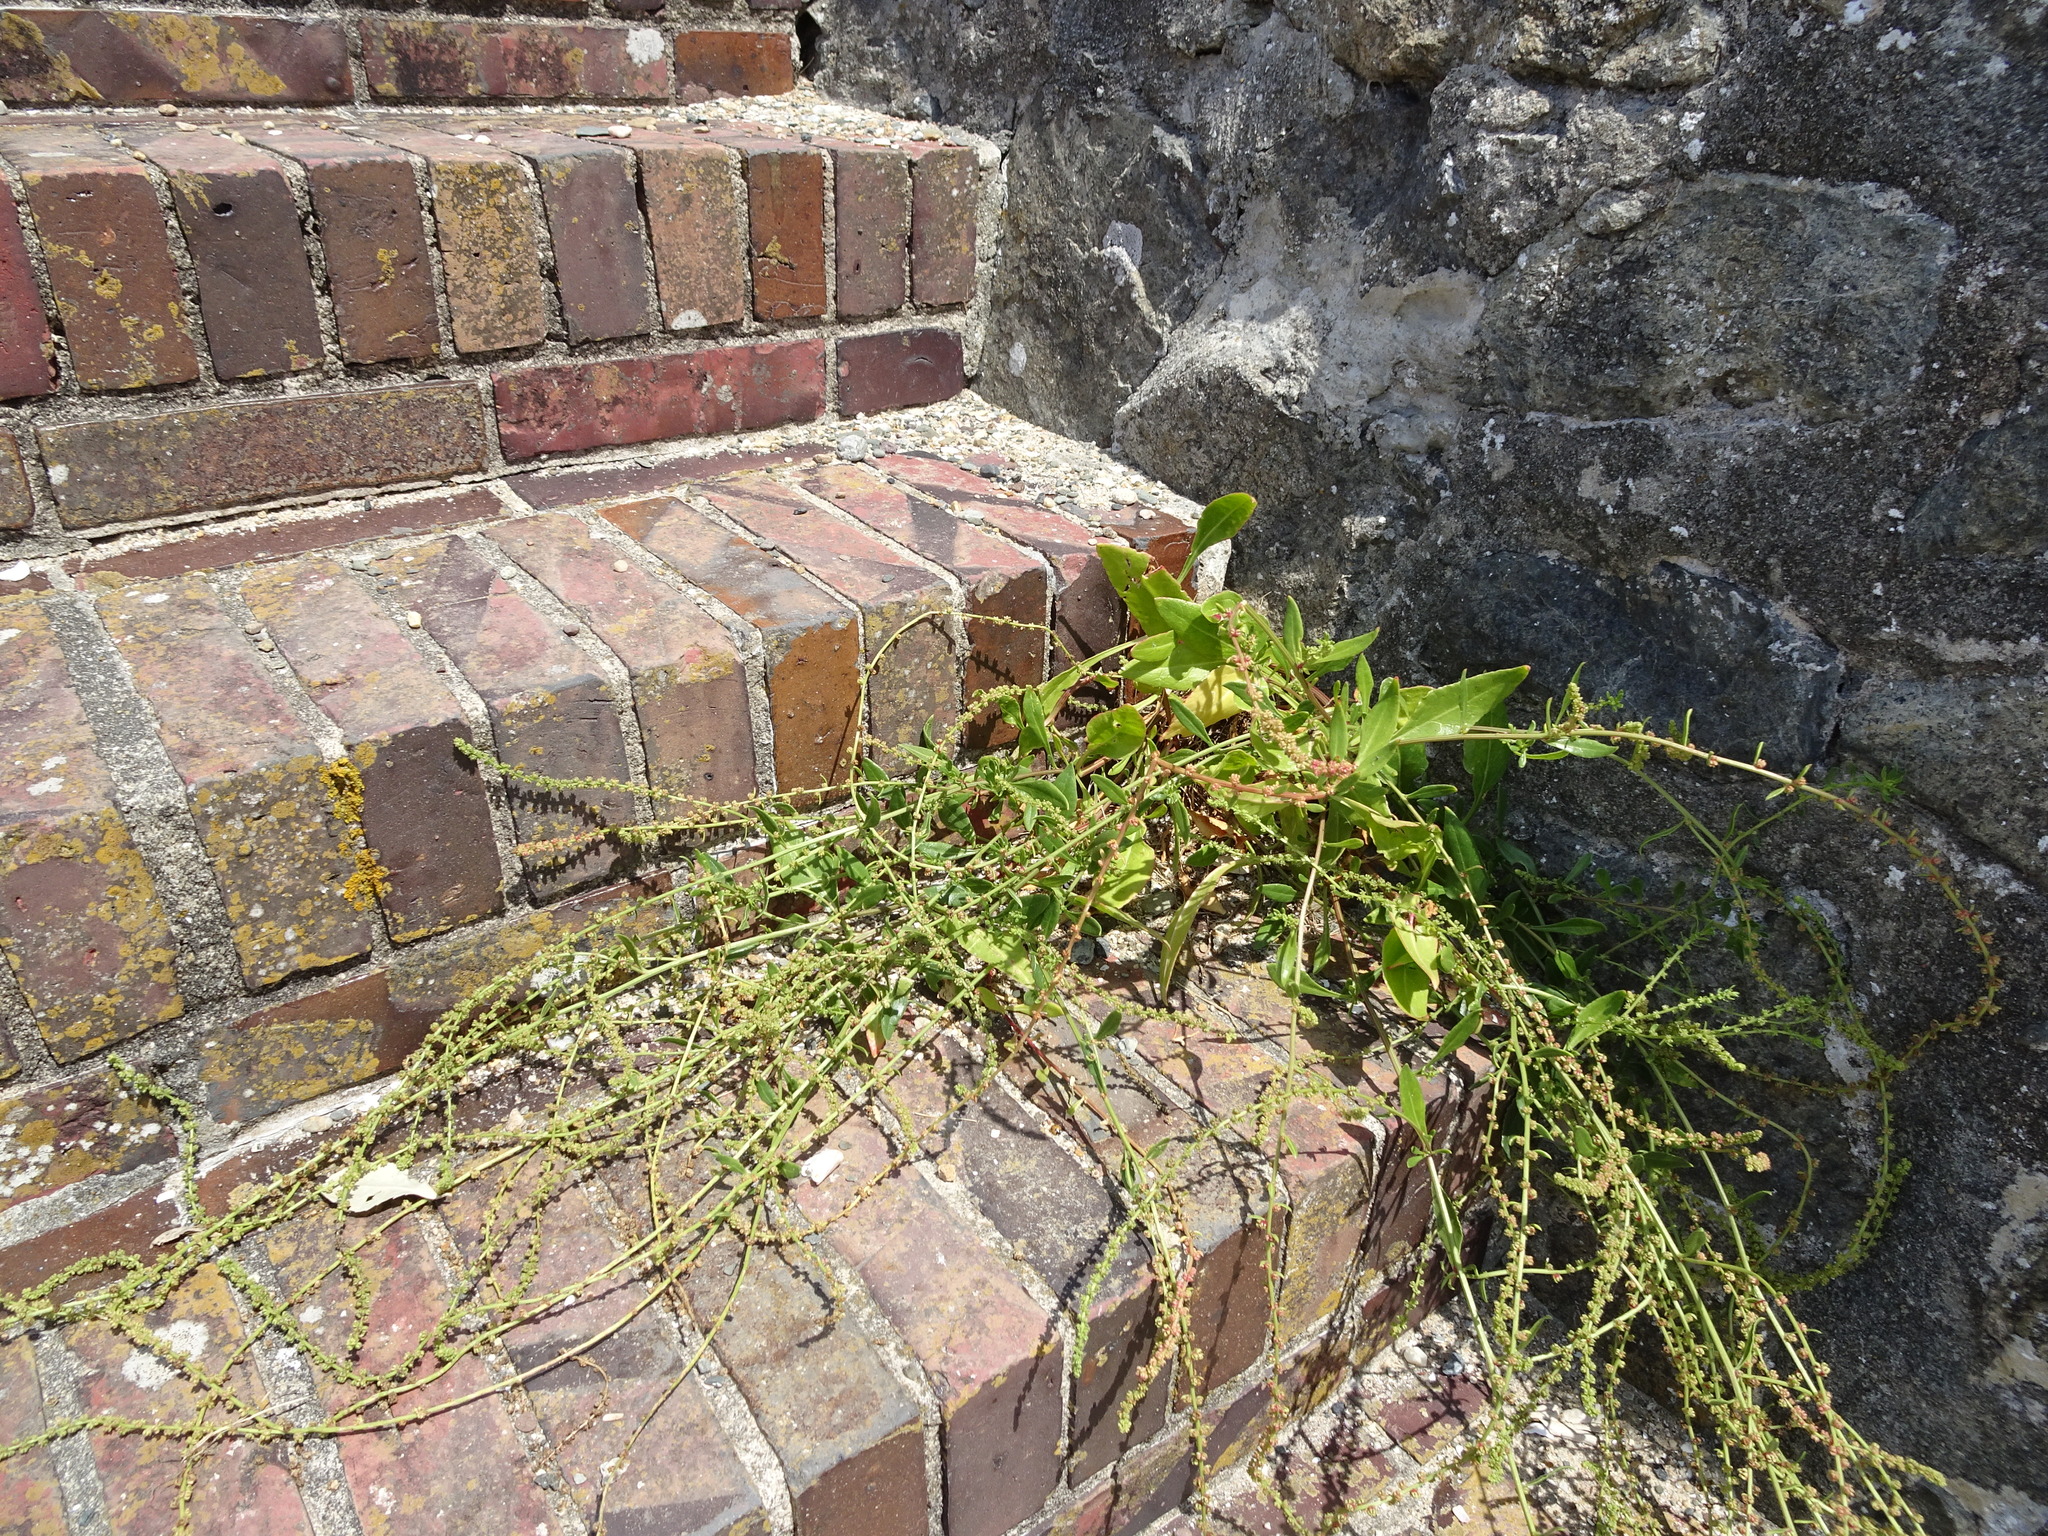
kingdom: Plantae
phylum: Tracheophyta
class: Magnoliopsida
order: Caryophyllales
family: Amaranthaceae
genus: Beta
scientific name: Beta vulgaris
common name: Beet
